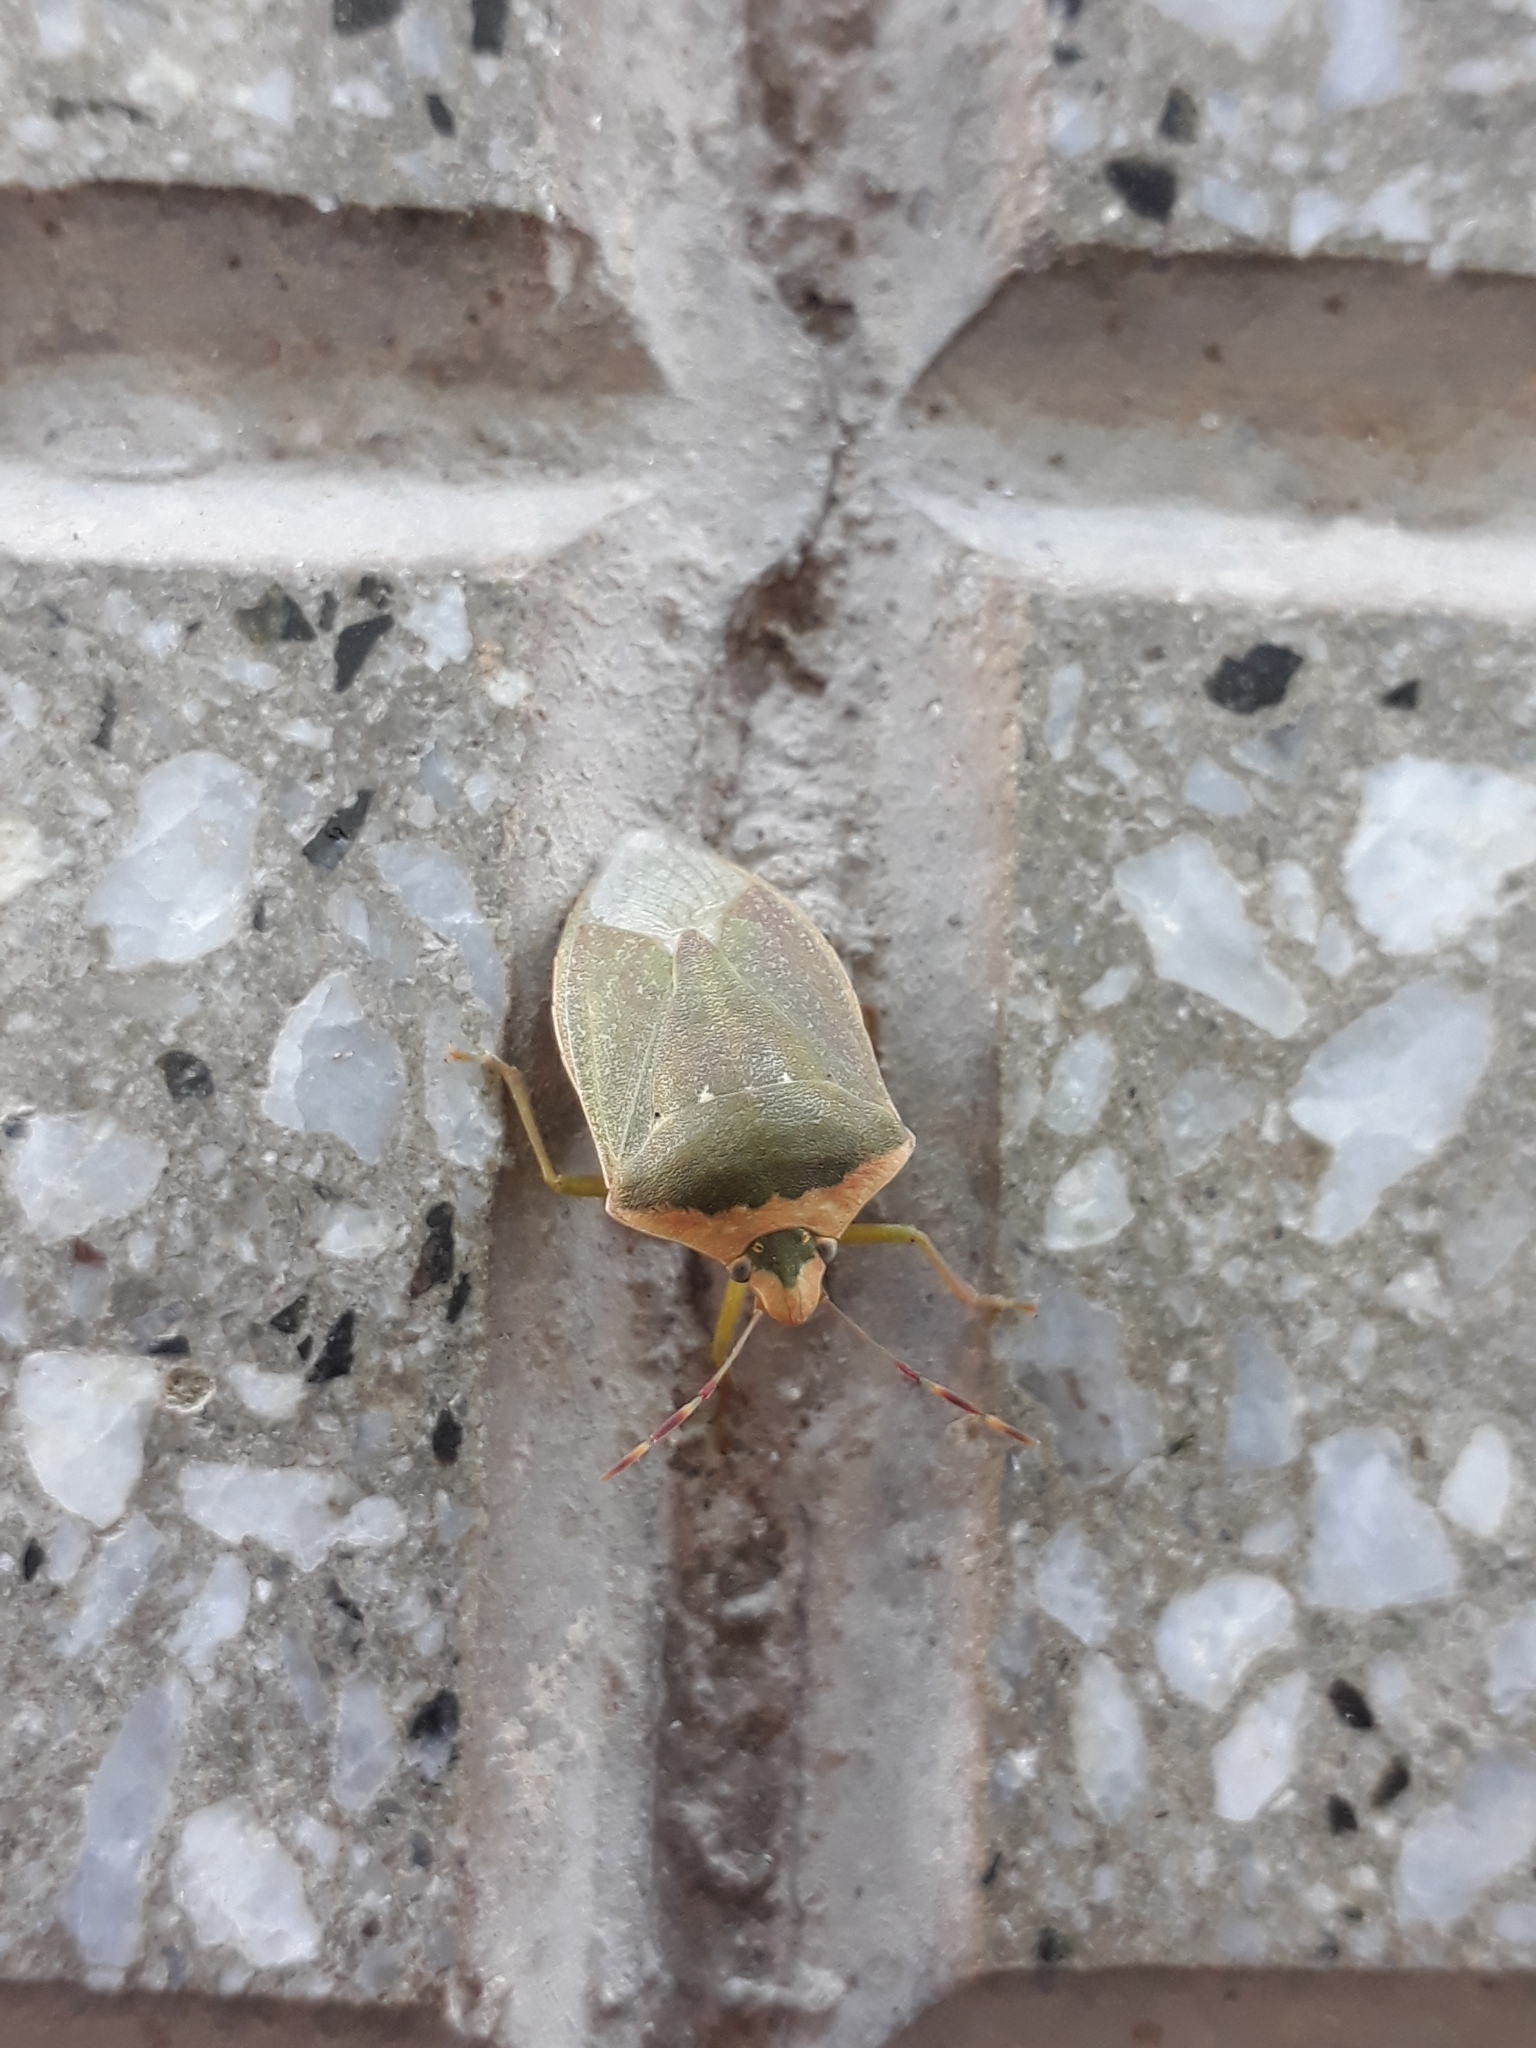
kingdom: Animalia
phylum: Arthropoda
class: Insecta
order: Hemiptera
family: Pentatomidae
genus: Nezara
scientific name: Nezara viridula
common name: Southern green stink bug
